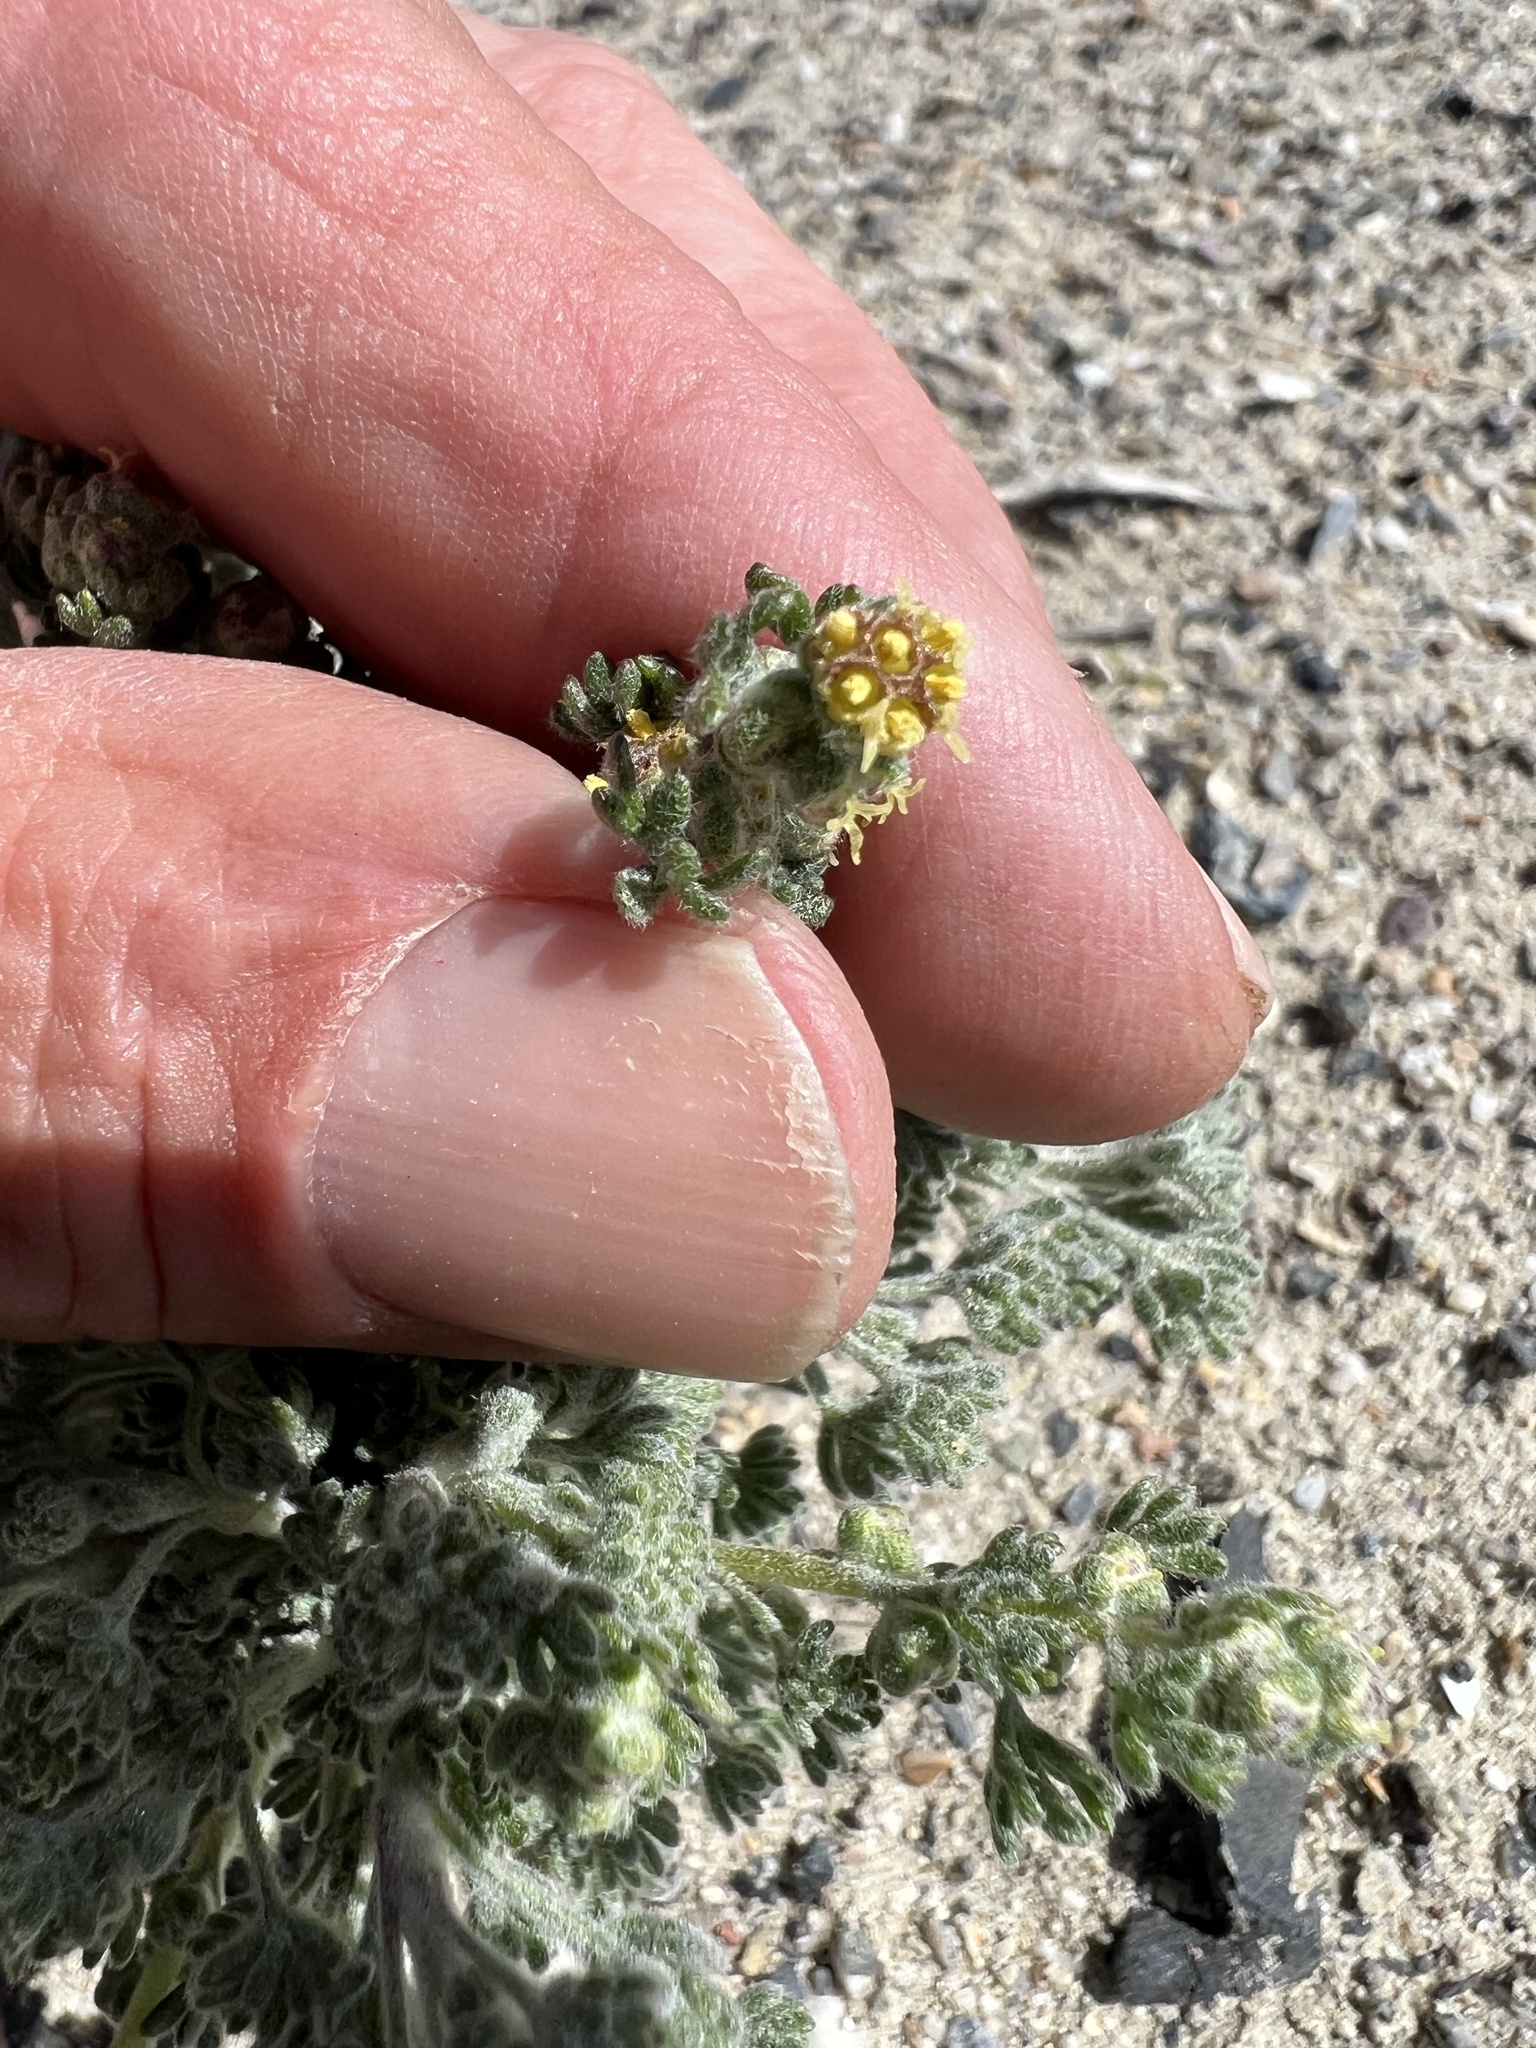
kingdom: Plantae
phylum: Tracheophyta
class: Magnoliopsida
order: Asterales
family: Asteraceae
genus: Artemisia
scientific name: Artemisia spinescens
